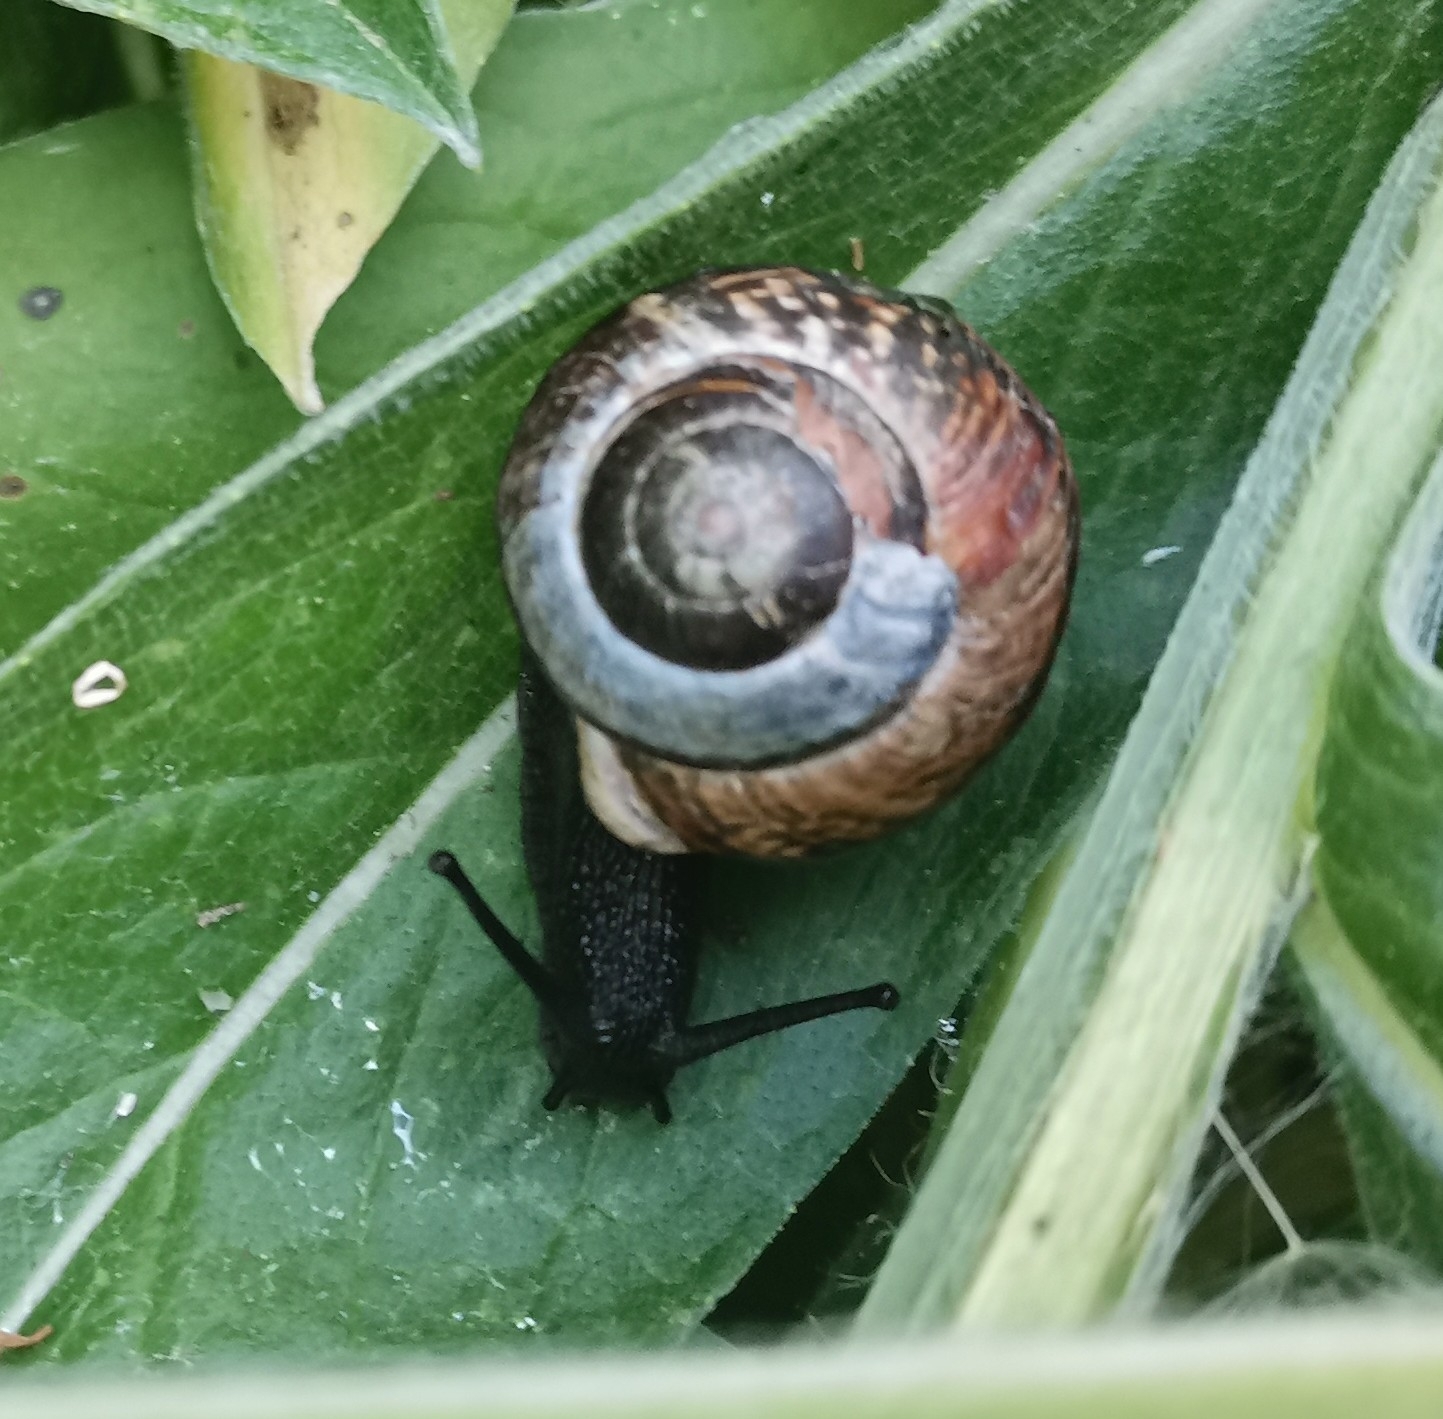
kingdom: Animalia
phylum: Mollusca
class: Gastropoda
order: Stylommatophora
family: Helicidae
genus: Arianta
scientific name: Arianta arbustorum
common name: Copse snail
